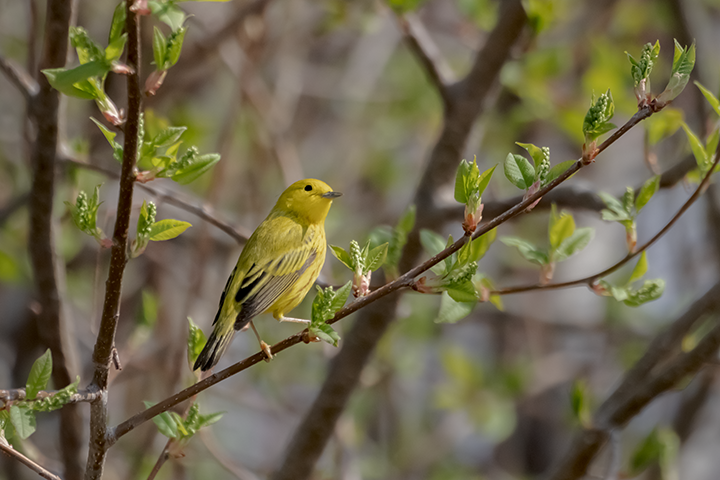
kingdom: Animalia
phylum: Chordata
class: Aves
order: Passeriformes
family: Parulidae
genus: Setophaga
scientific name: Setophaga petechia
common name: Yellow warbler
